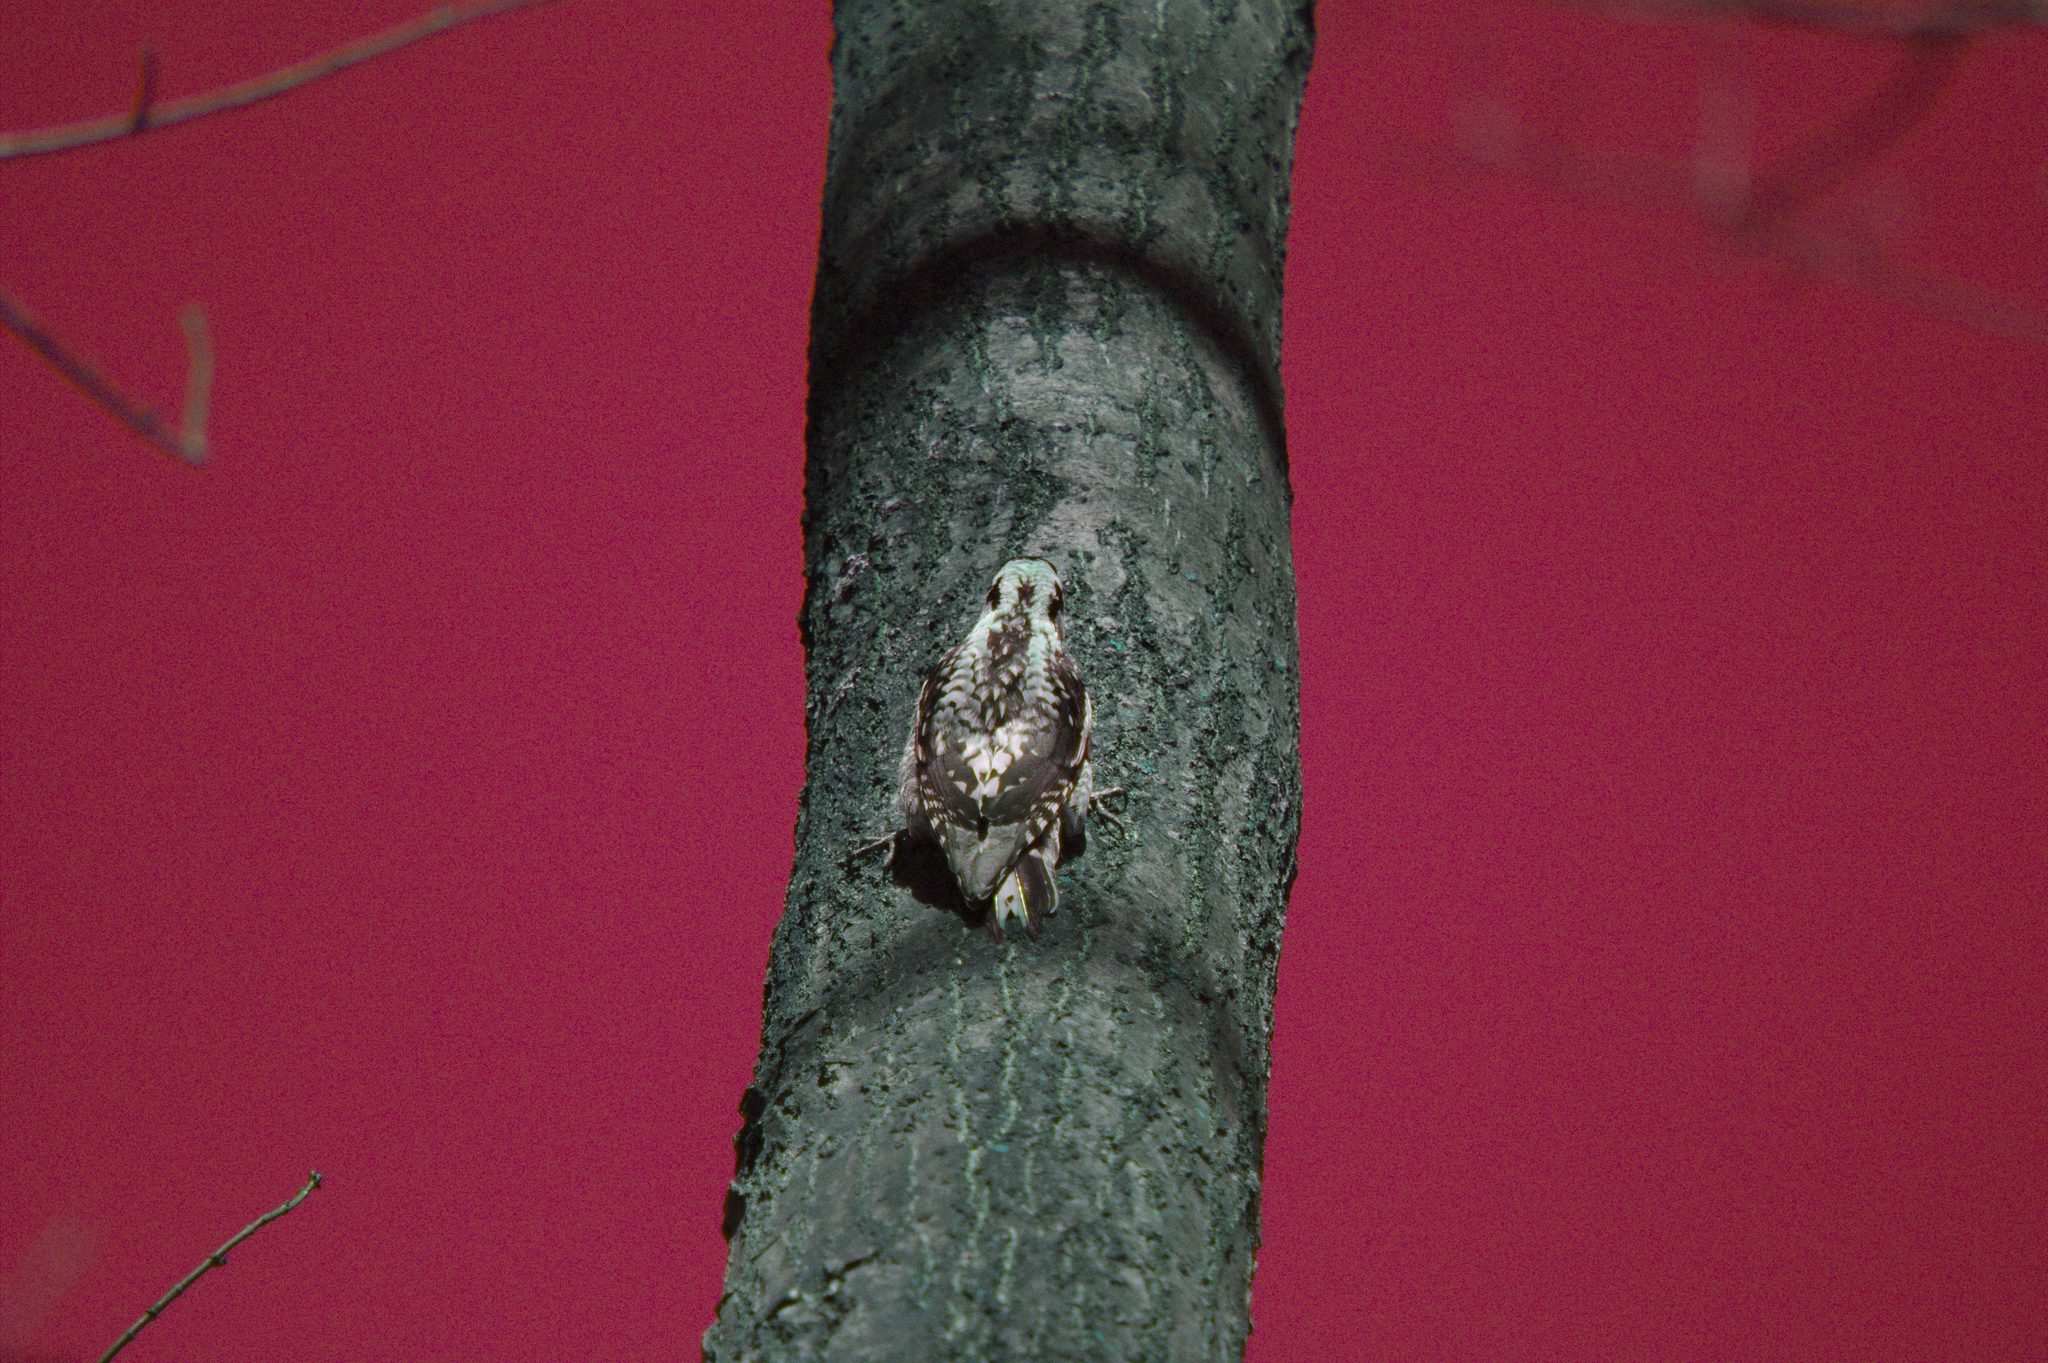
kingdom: Animalia
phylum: Chordata
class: Aves
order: Piciformes
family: Picidae
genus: Sphyrapicus
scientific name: Sphyrapicus varius
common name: Yellow-bellied sapsucker
